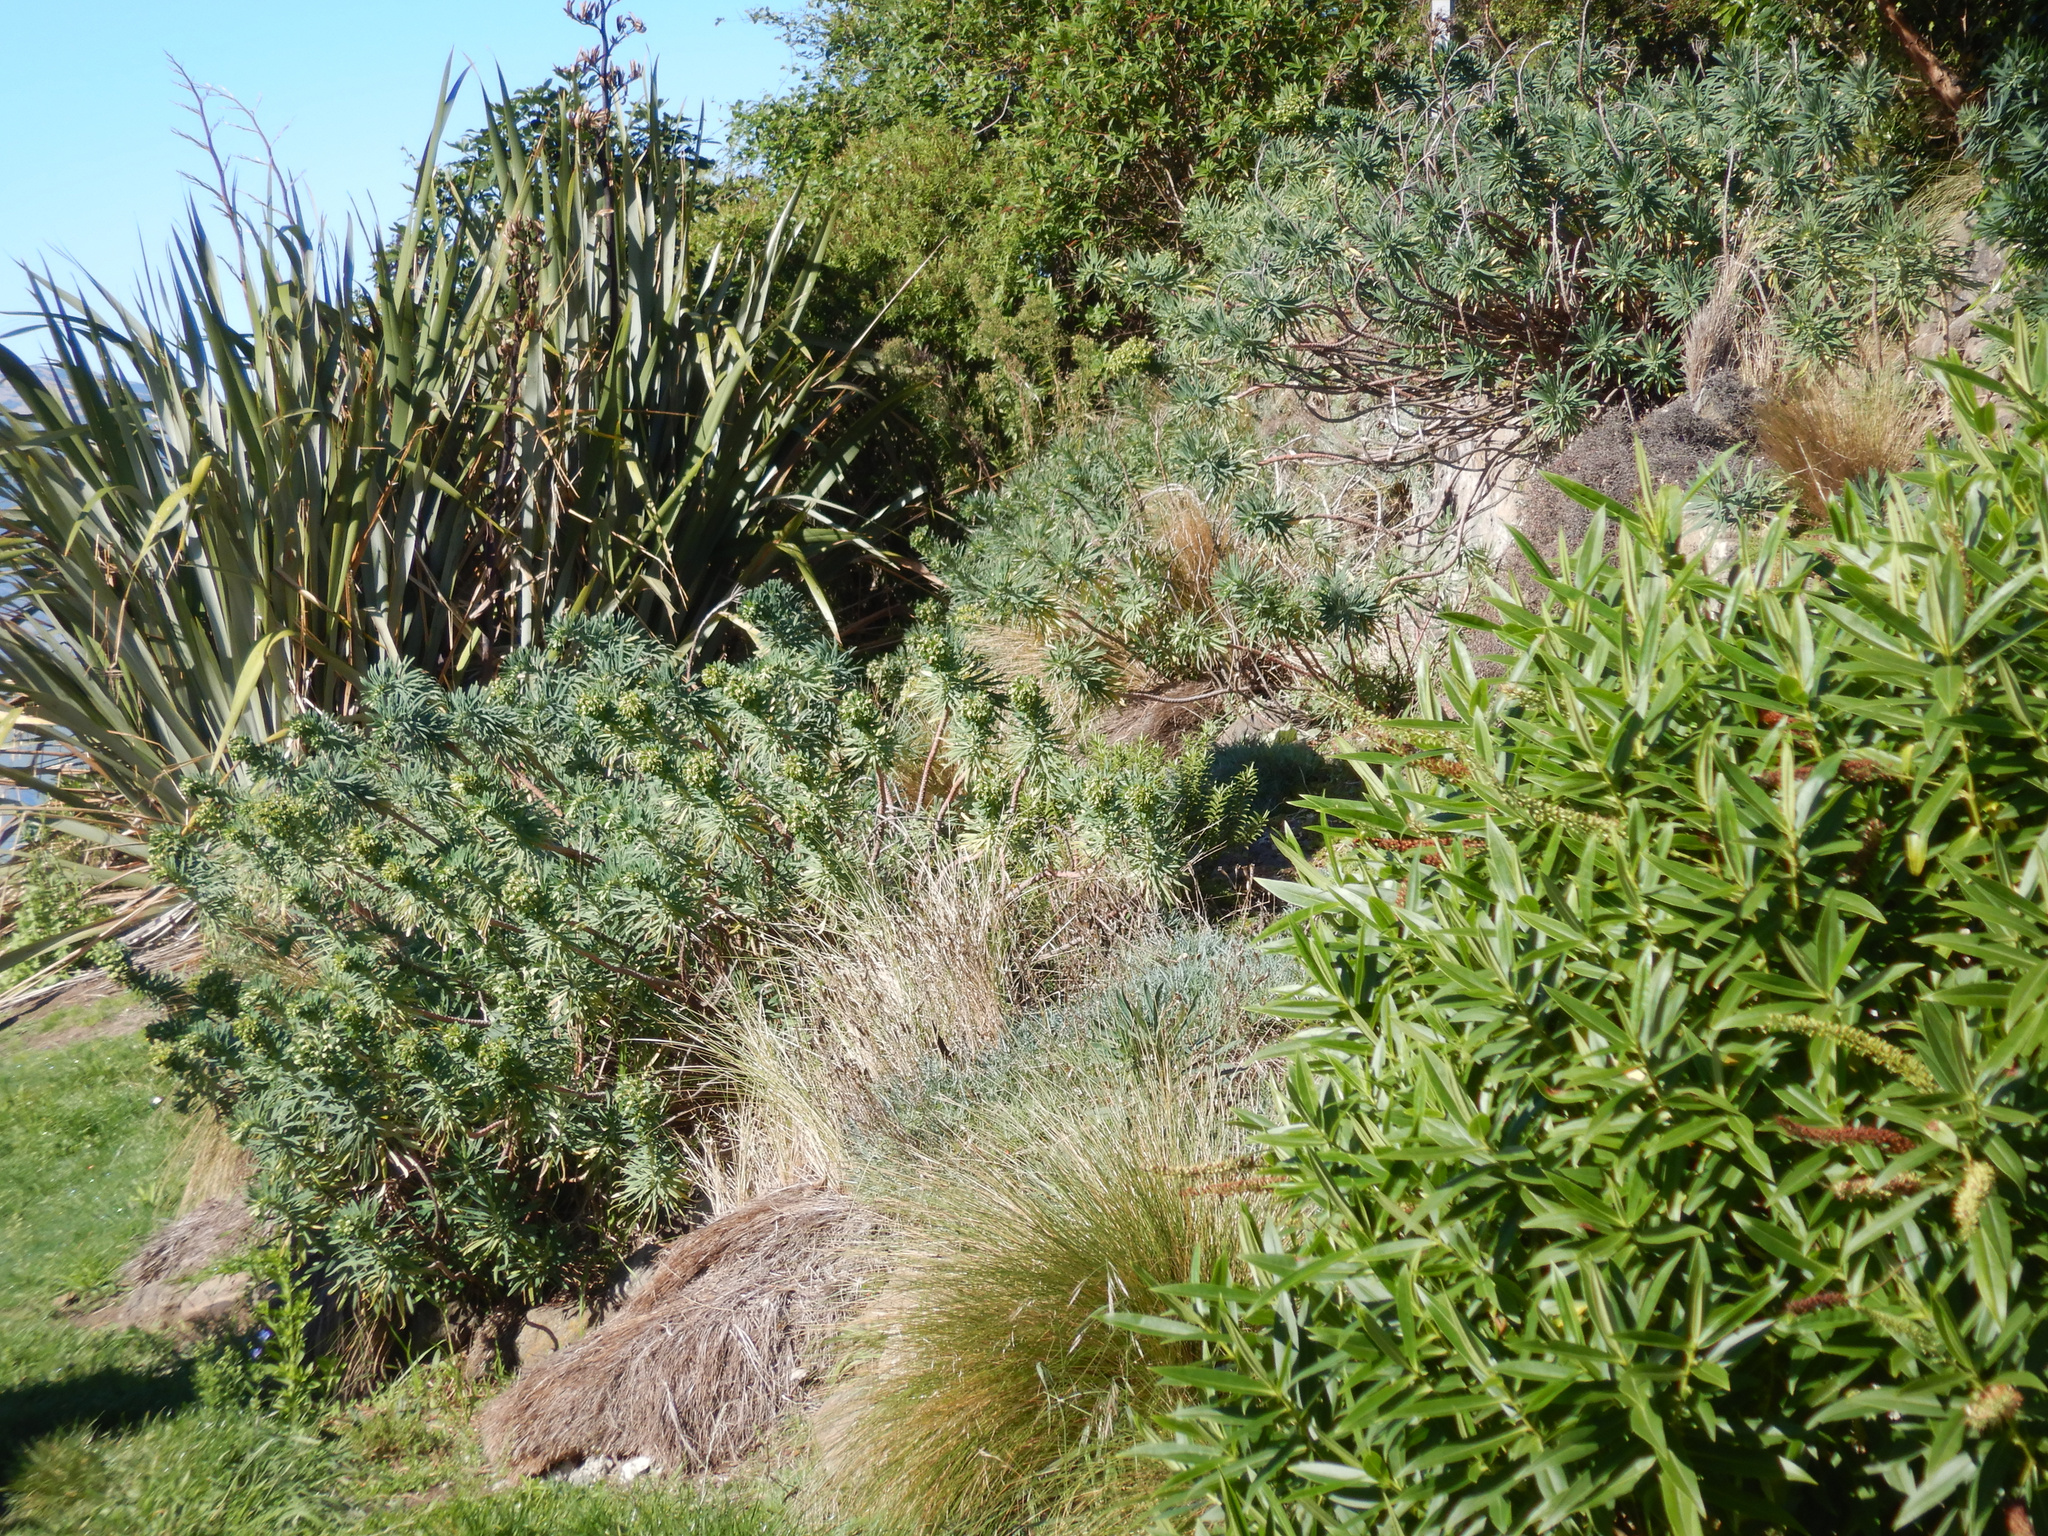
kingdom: Plantae
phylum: Tracheophyta
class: Liliopsida
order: Asparagales
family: Asphodelaceae
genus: Phormium
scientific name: Phormium tenax
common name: New zealand flax
